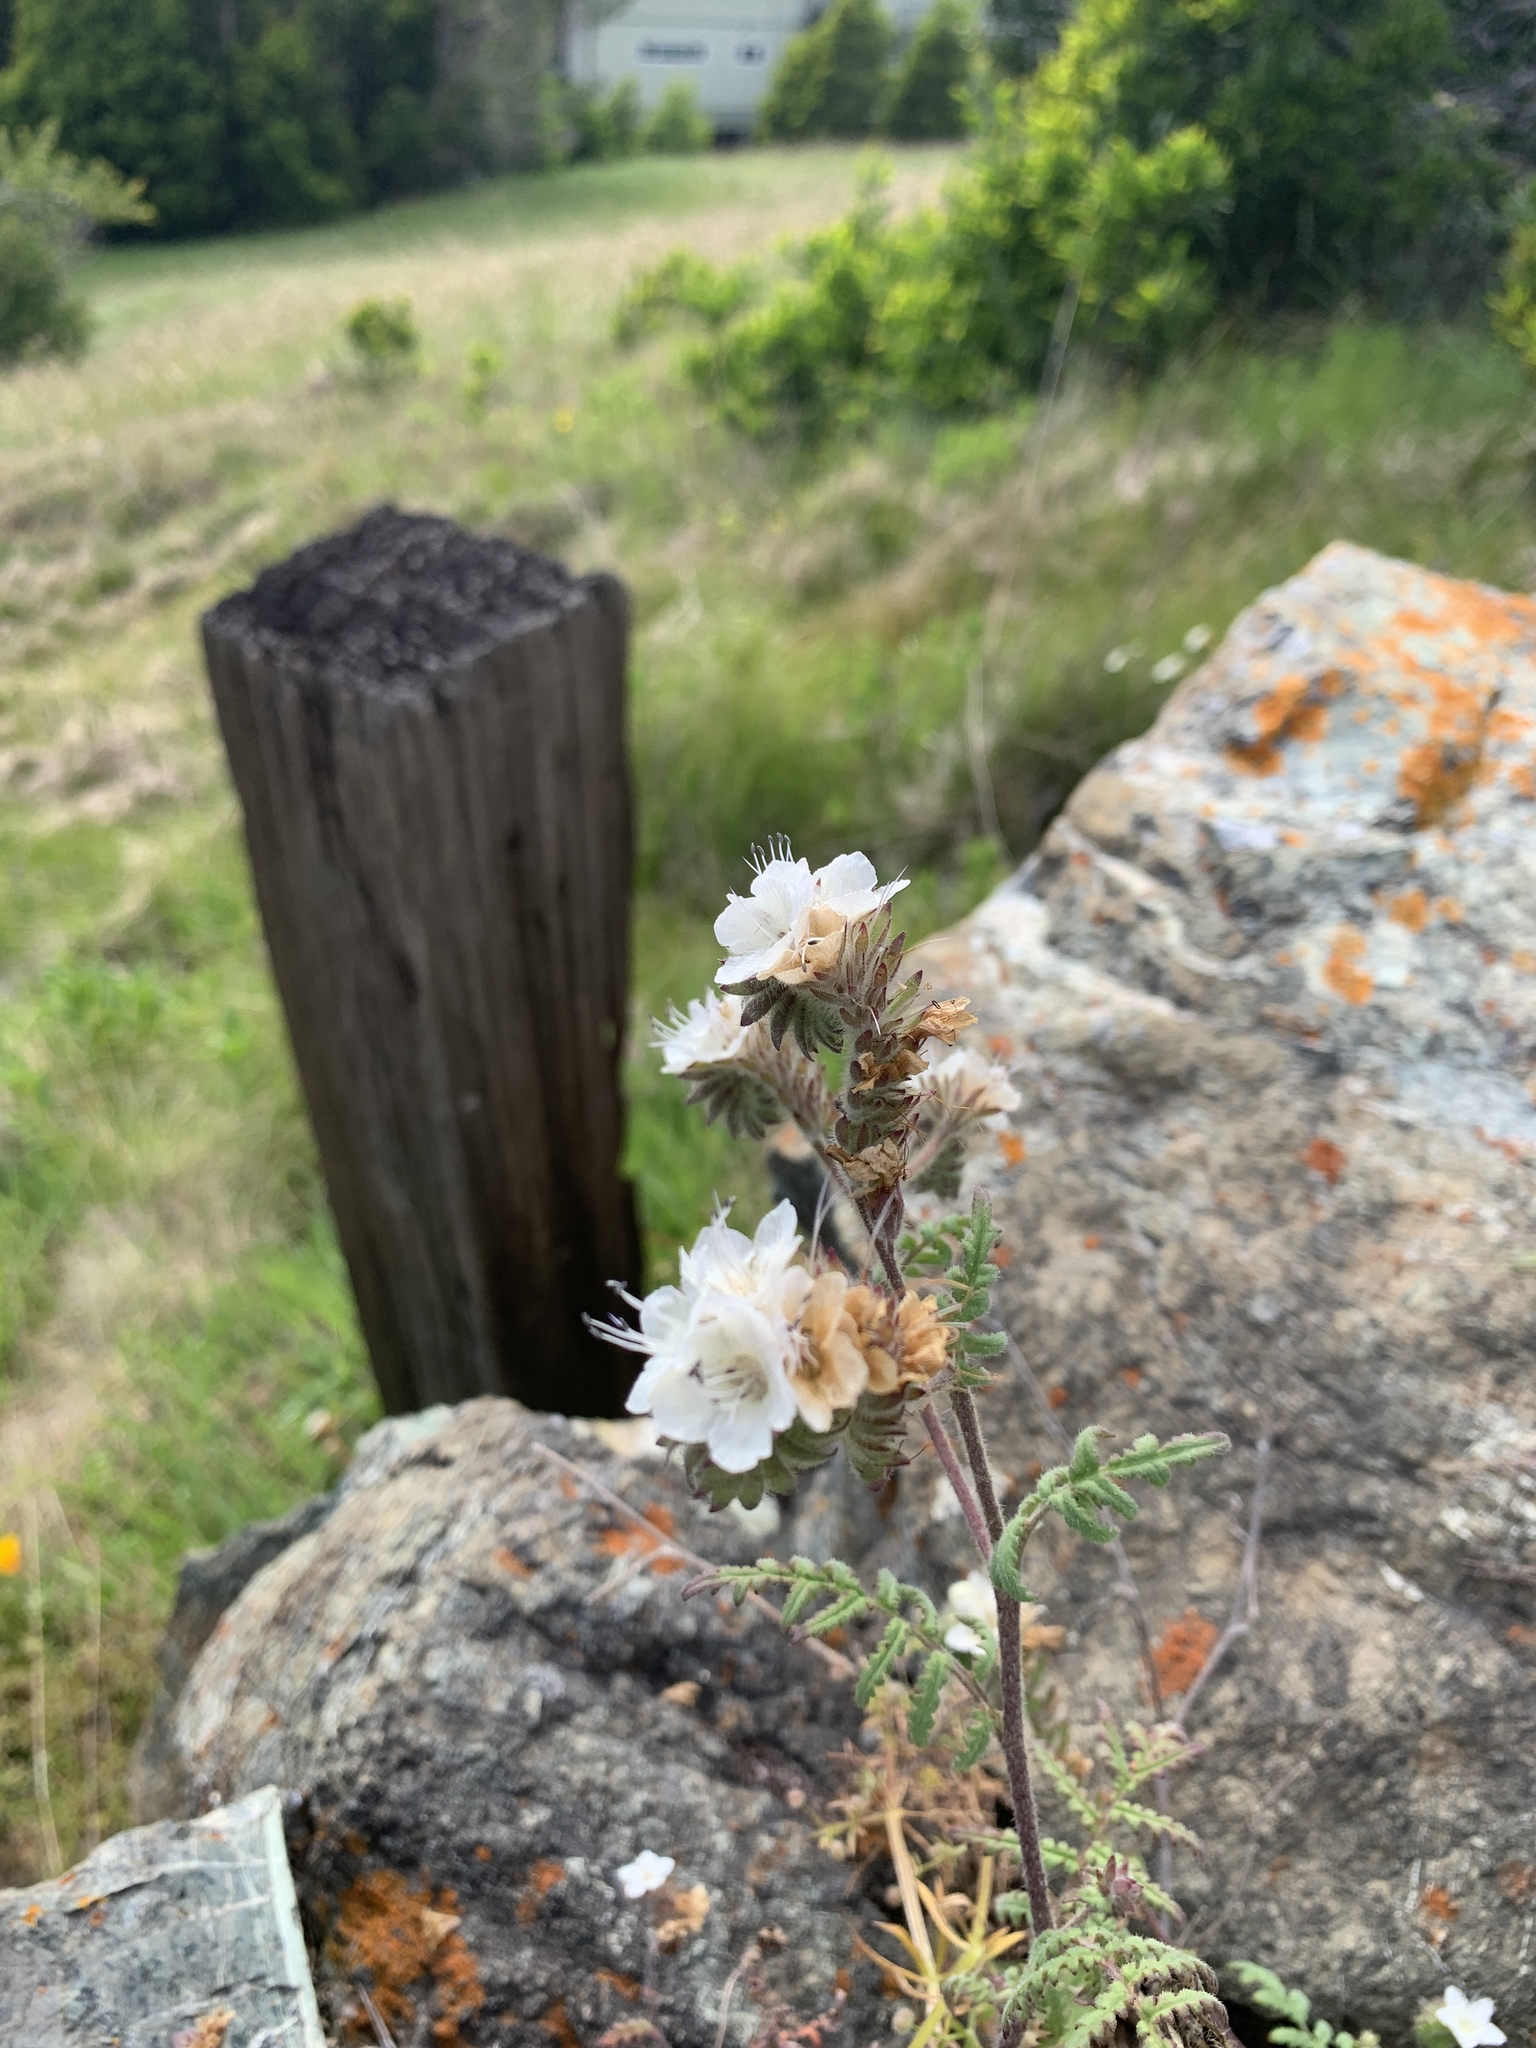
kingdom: Plantae
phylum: Tracheophyta
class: Magnoliopsida
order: Boraginales
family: Hydrophyllaceae
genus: Phacelia
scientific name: Phacelia distans
